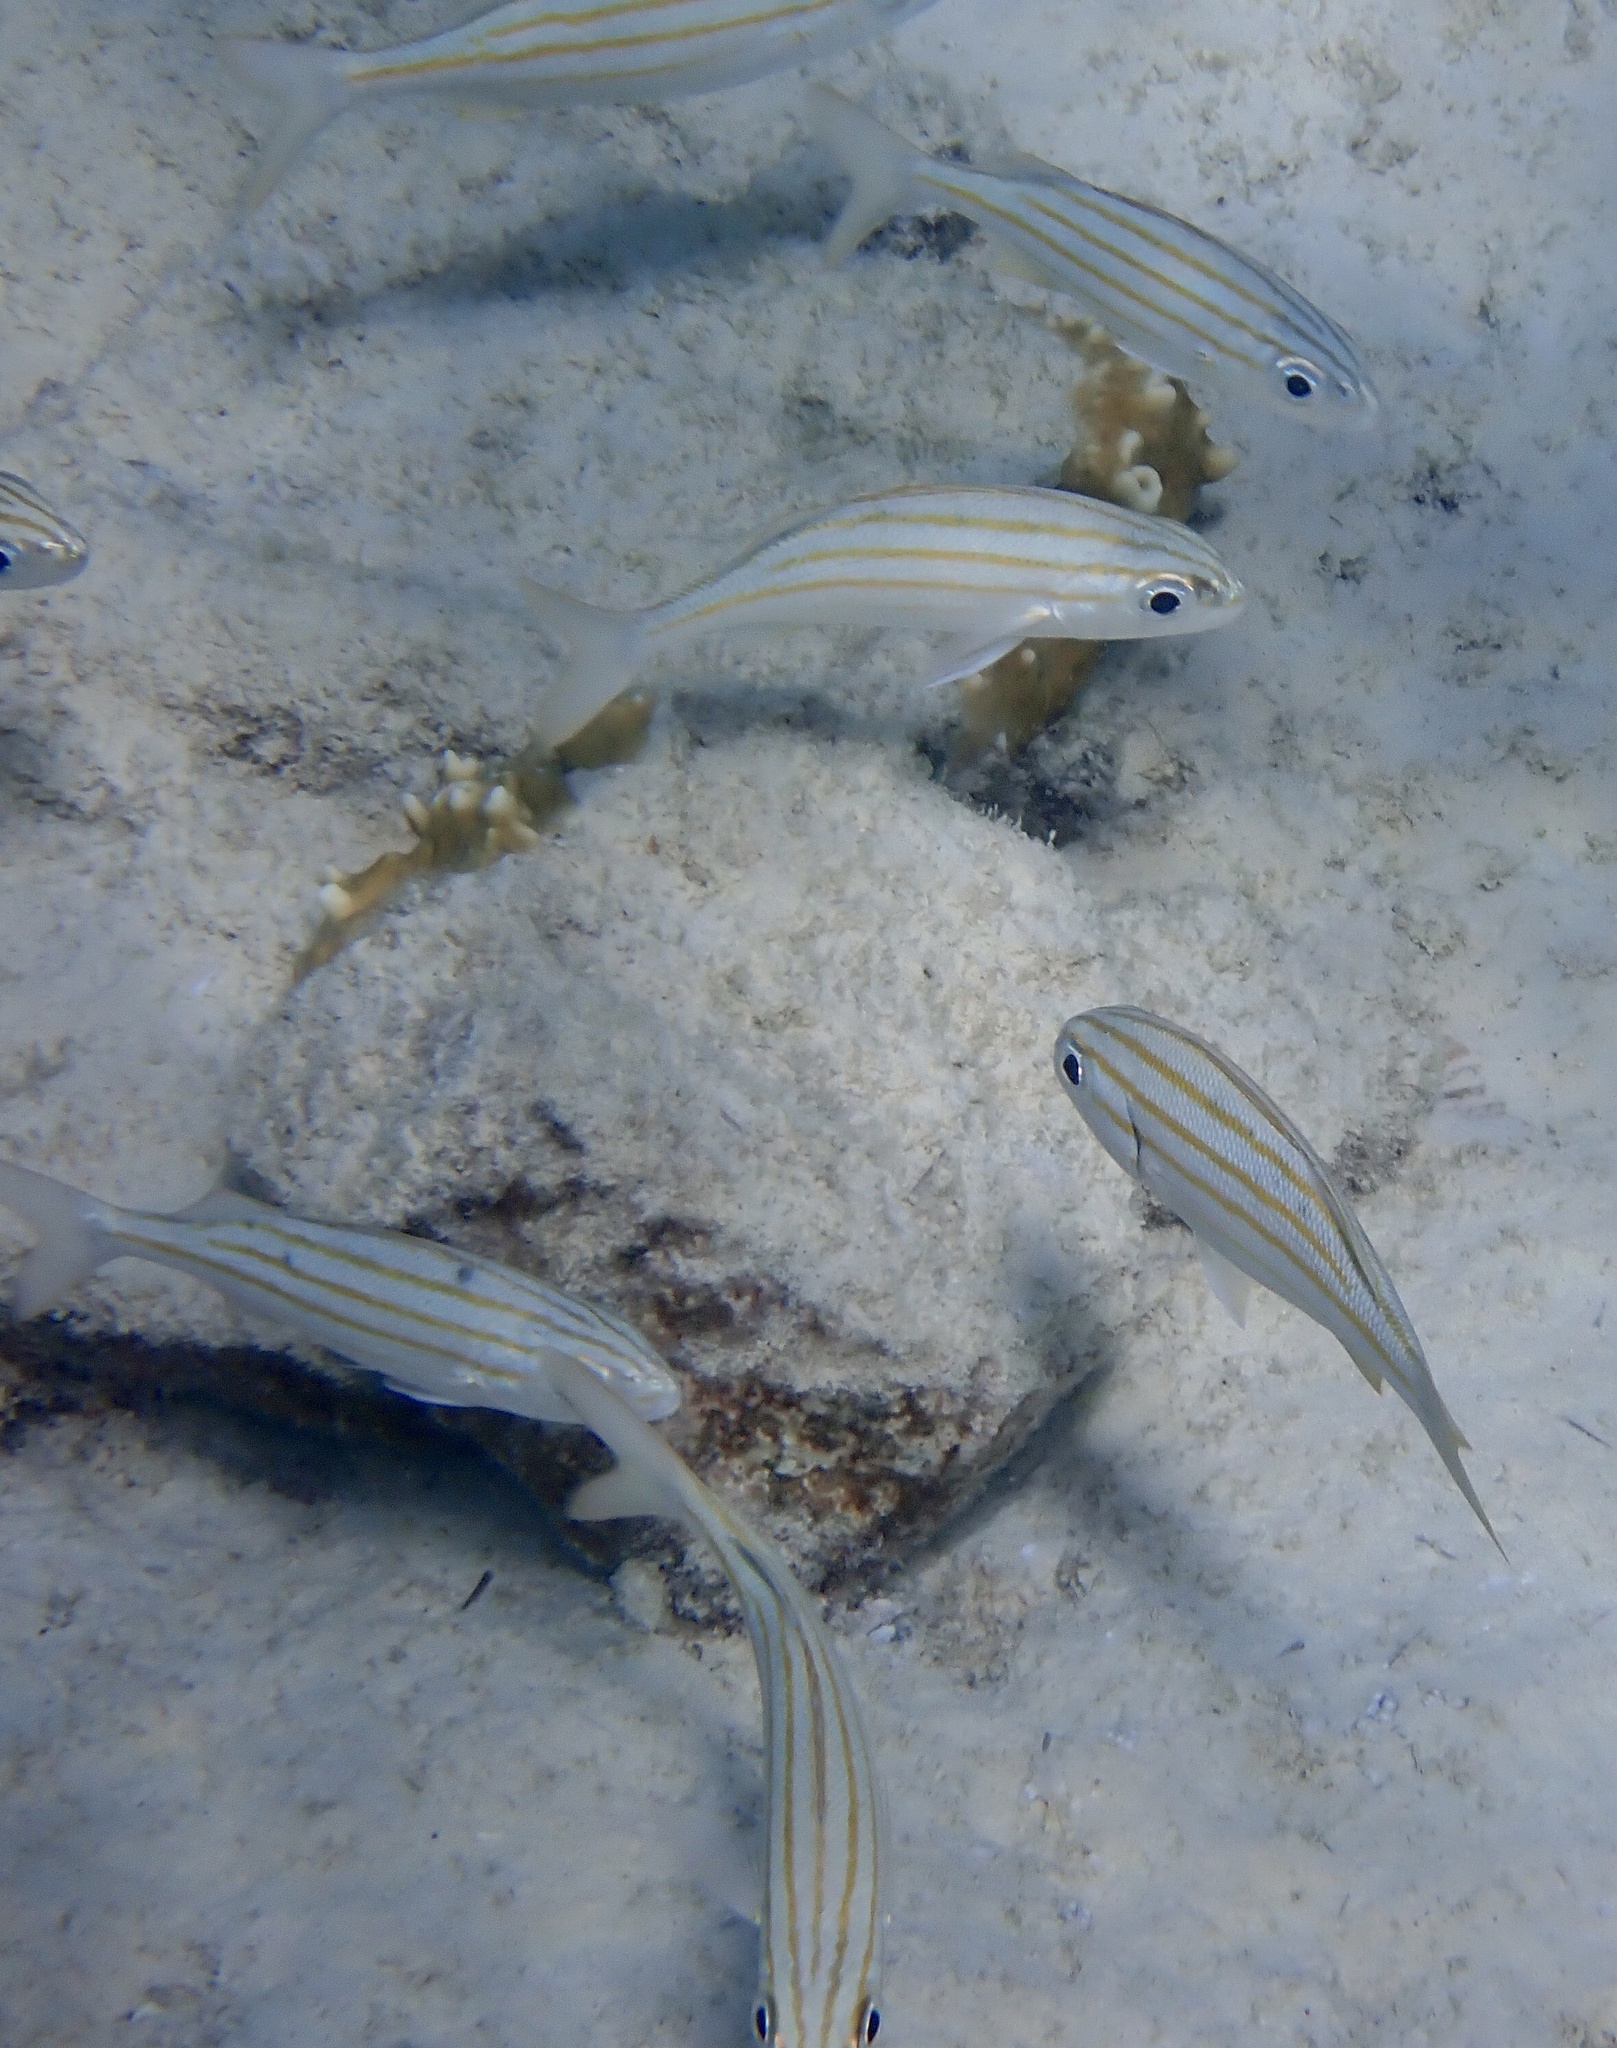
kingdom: Animalia
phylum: Chordata
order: Perciformes
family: Haemulidae
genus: Haemulon
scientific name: Haemulon chrysargyreum
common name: Smallmouth grunt
